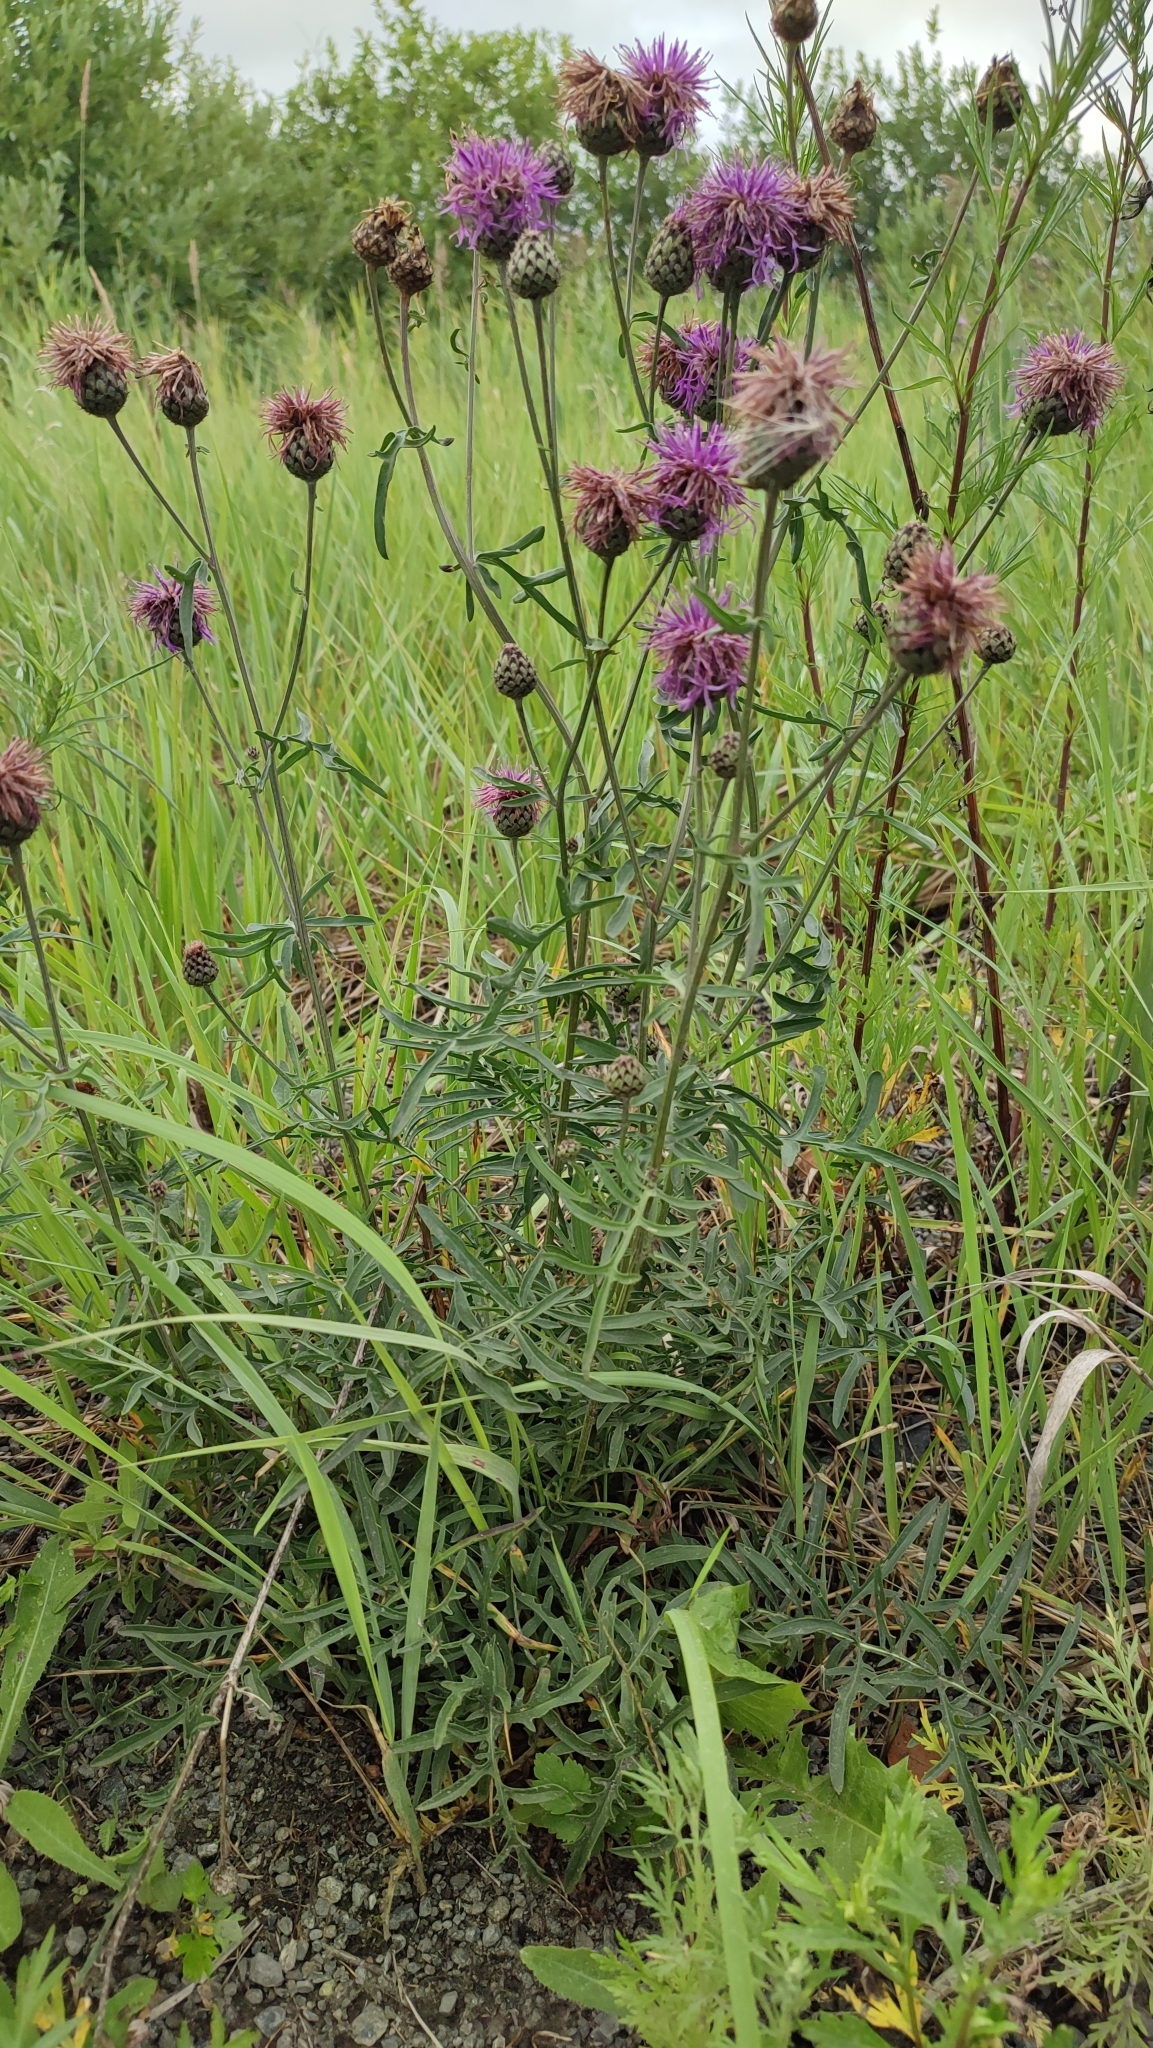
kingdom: Plantae
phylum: Tracheophyta
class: Magnoliopsida
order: Asterales
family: Asteraceae
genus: Centaurea
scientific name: Centaurea scabiosa
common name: Greater knapweed
